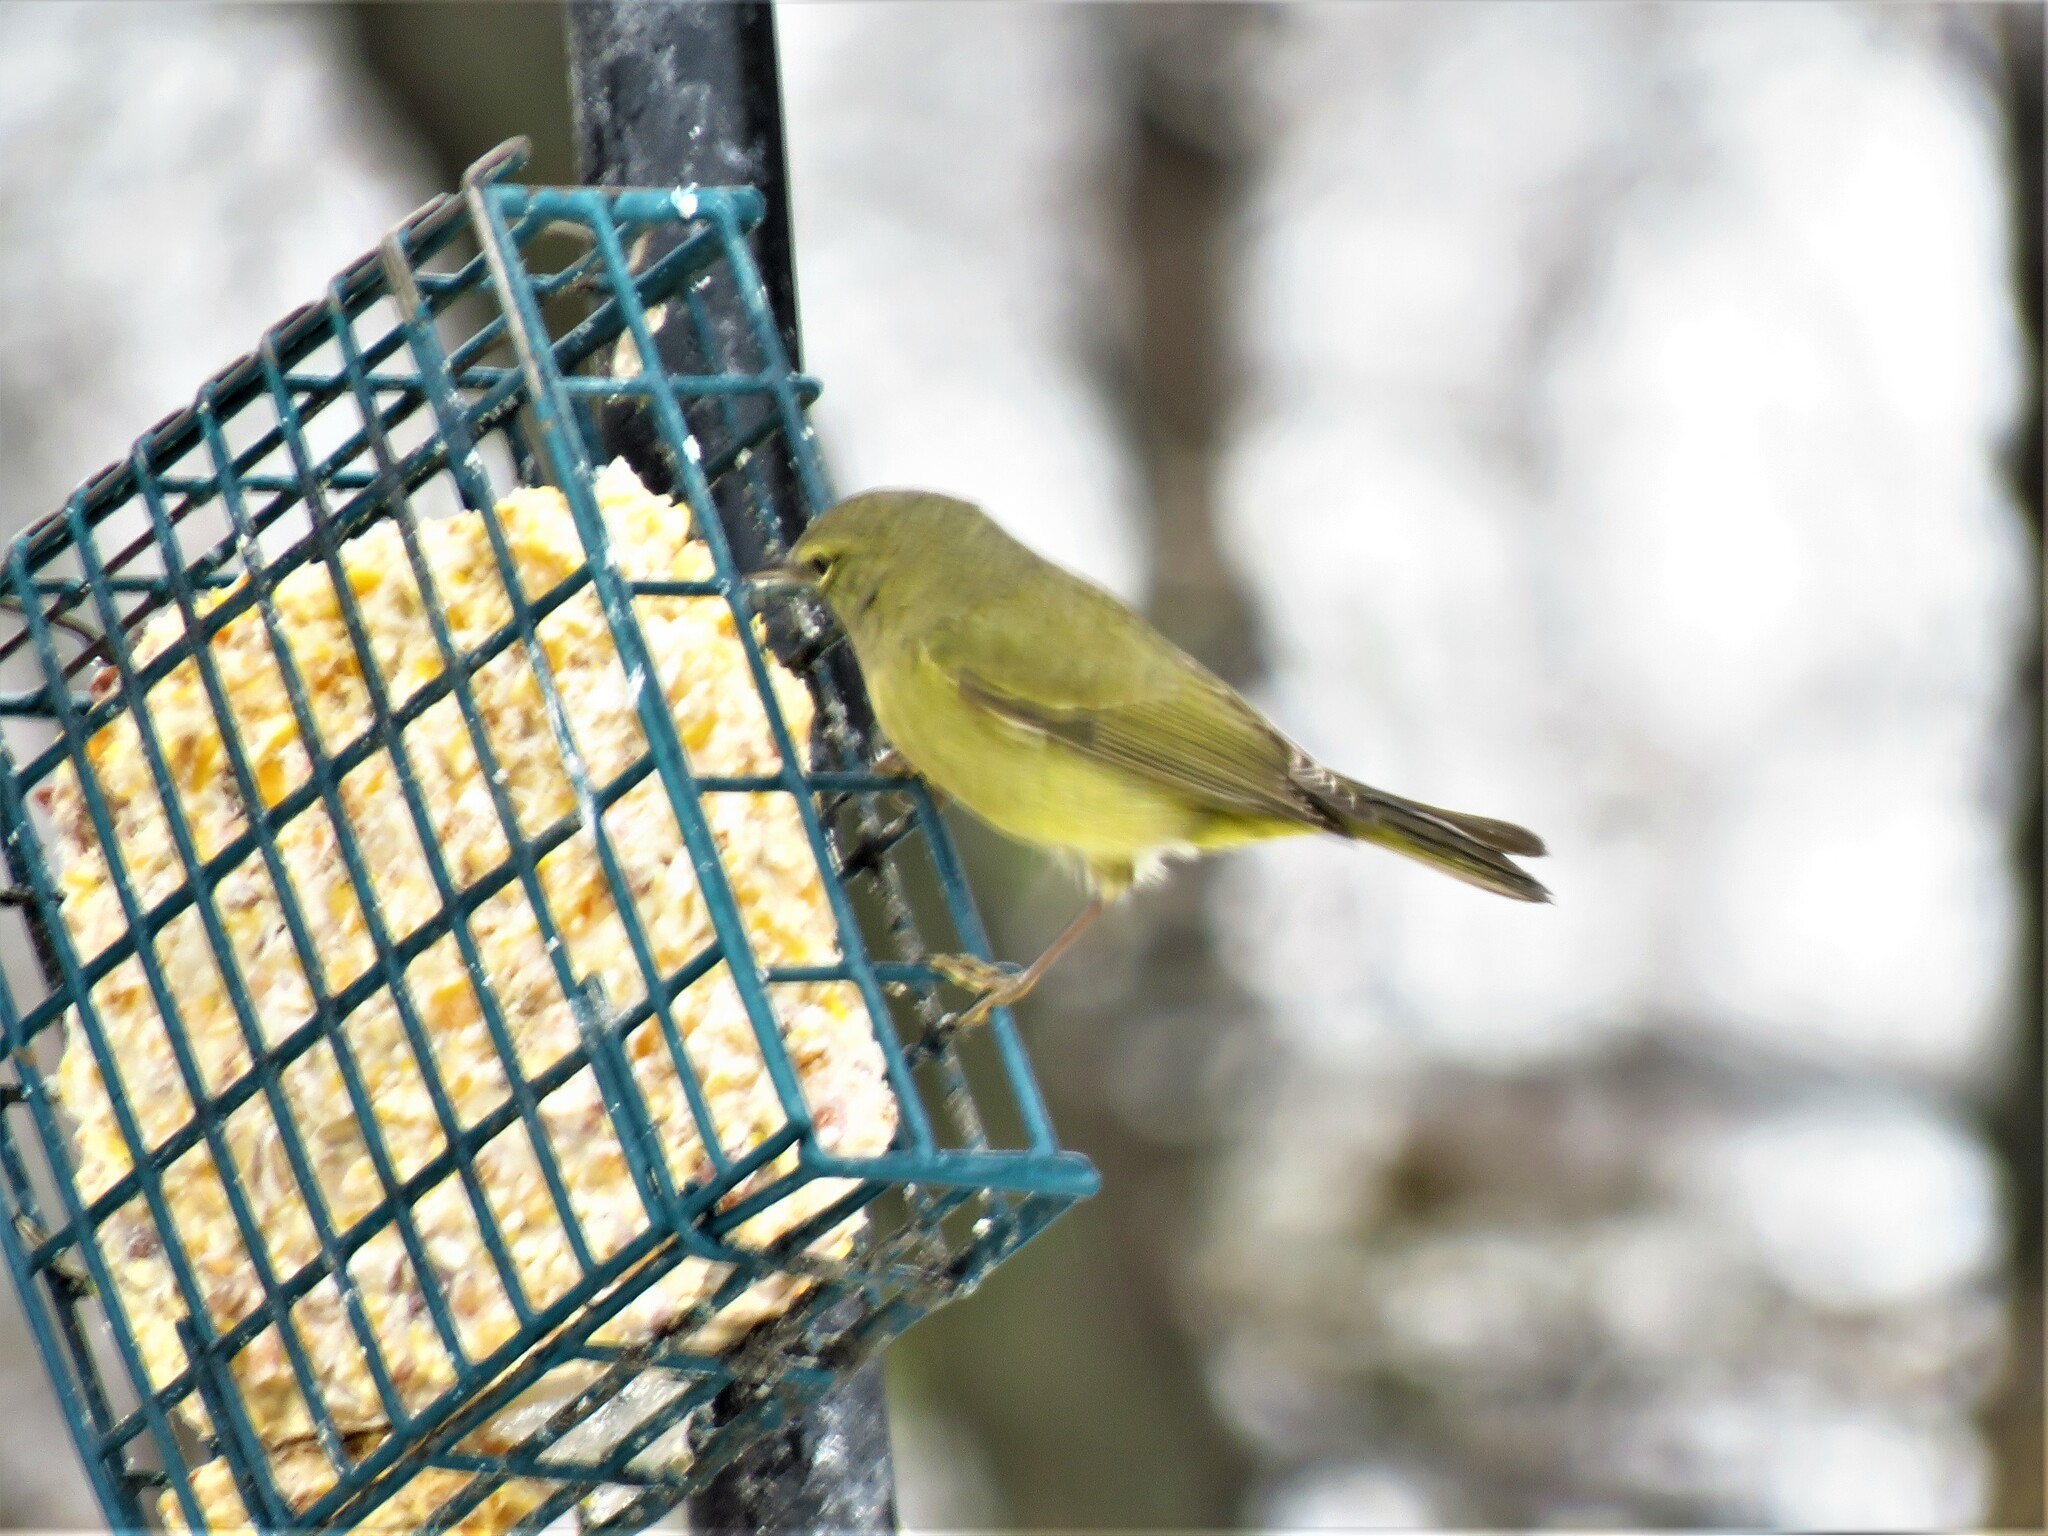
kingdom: Animalia
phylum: Chordata
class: Aves
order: Passeriformes
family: Parulidae
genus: Leiothlypis
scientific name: Leiothlypis celata
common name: Orange-crowned warbler
